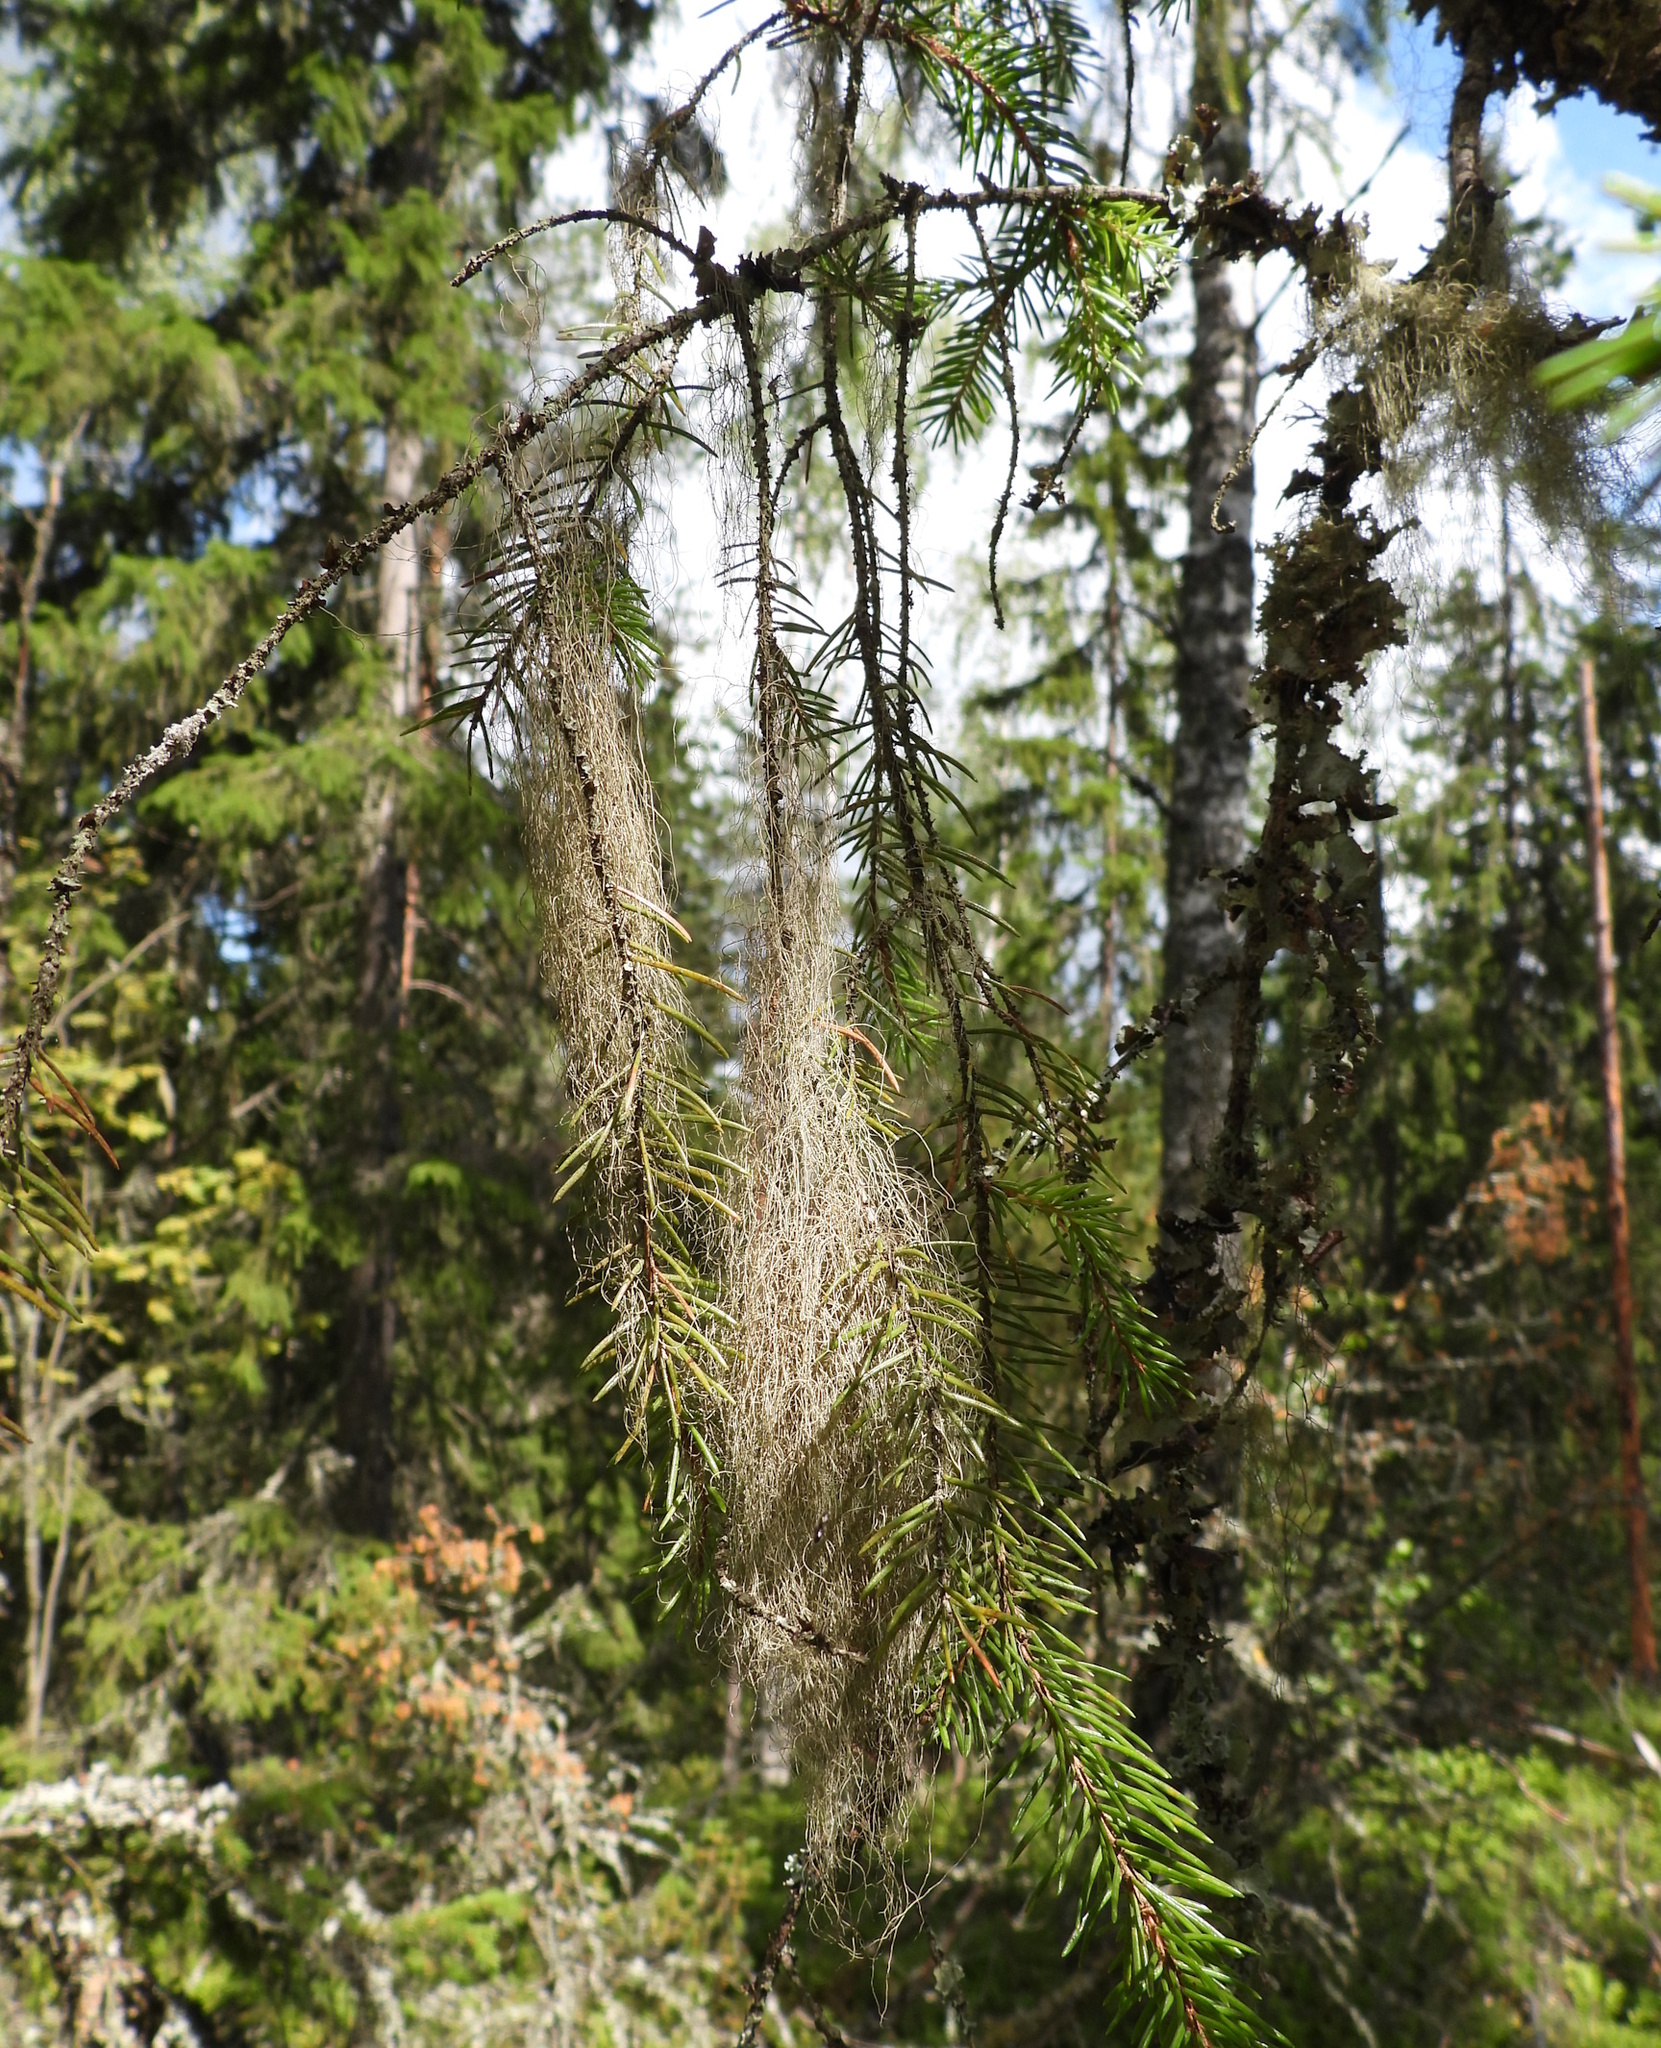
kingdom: Fungi
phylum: Ascomycota
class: Lecanoromycetes
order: Lecanorales
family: Parmeliaceae
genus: Bryoria
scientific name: Bryoria fuscescens
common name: Pale-footed horsehair lichen
